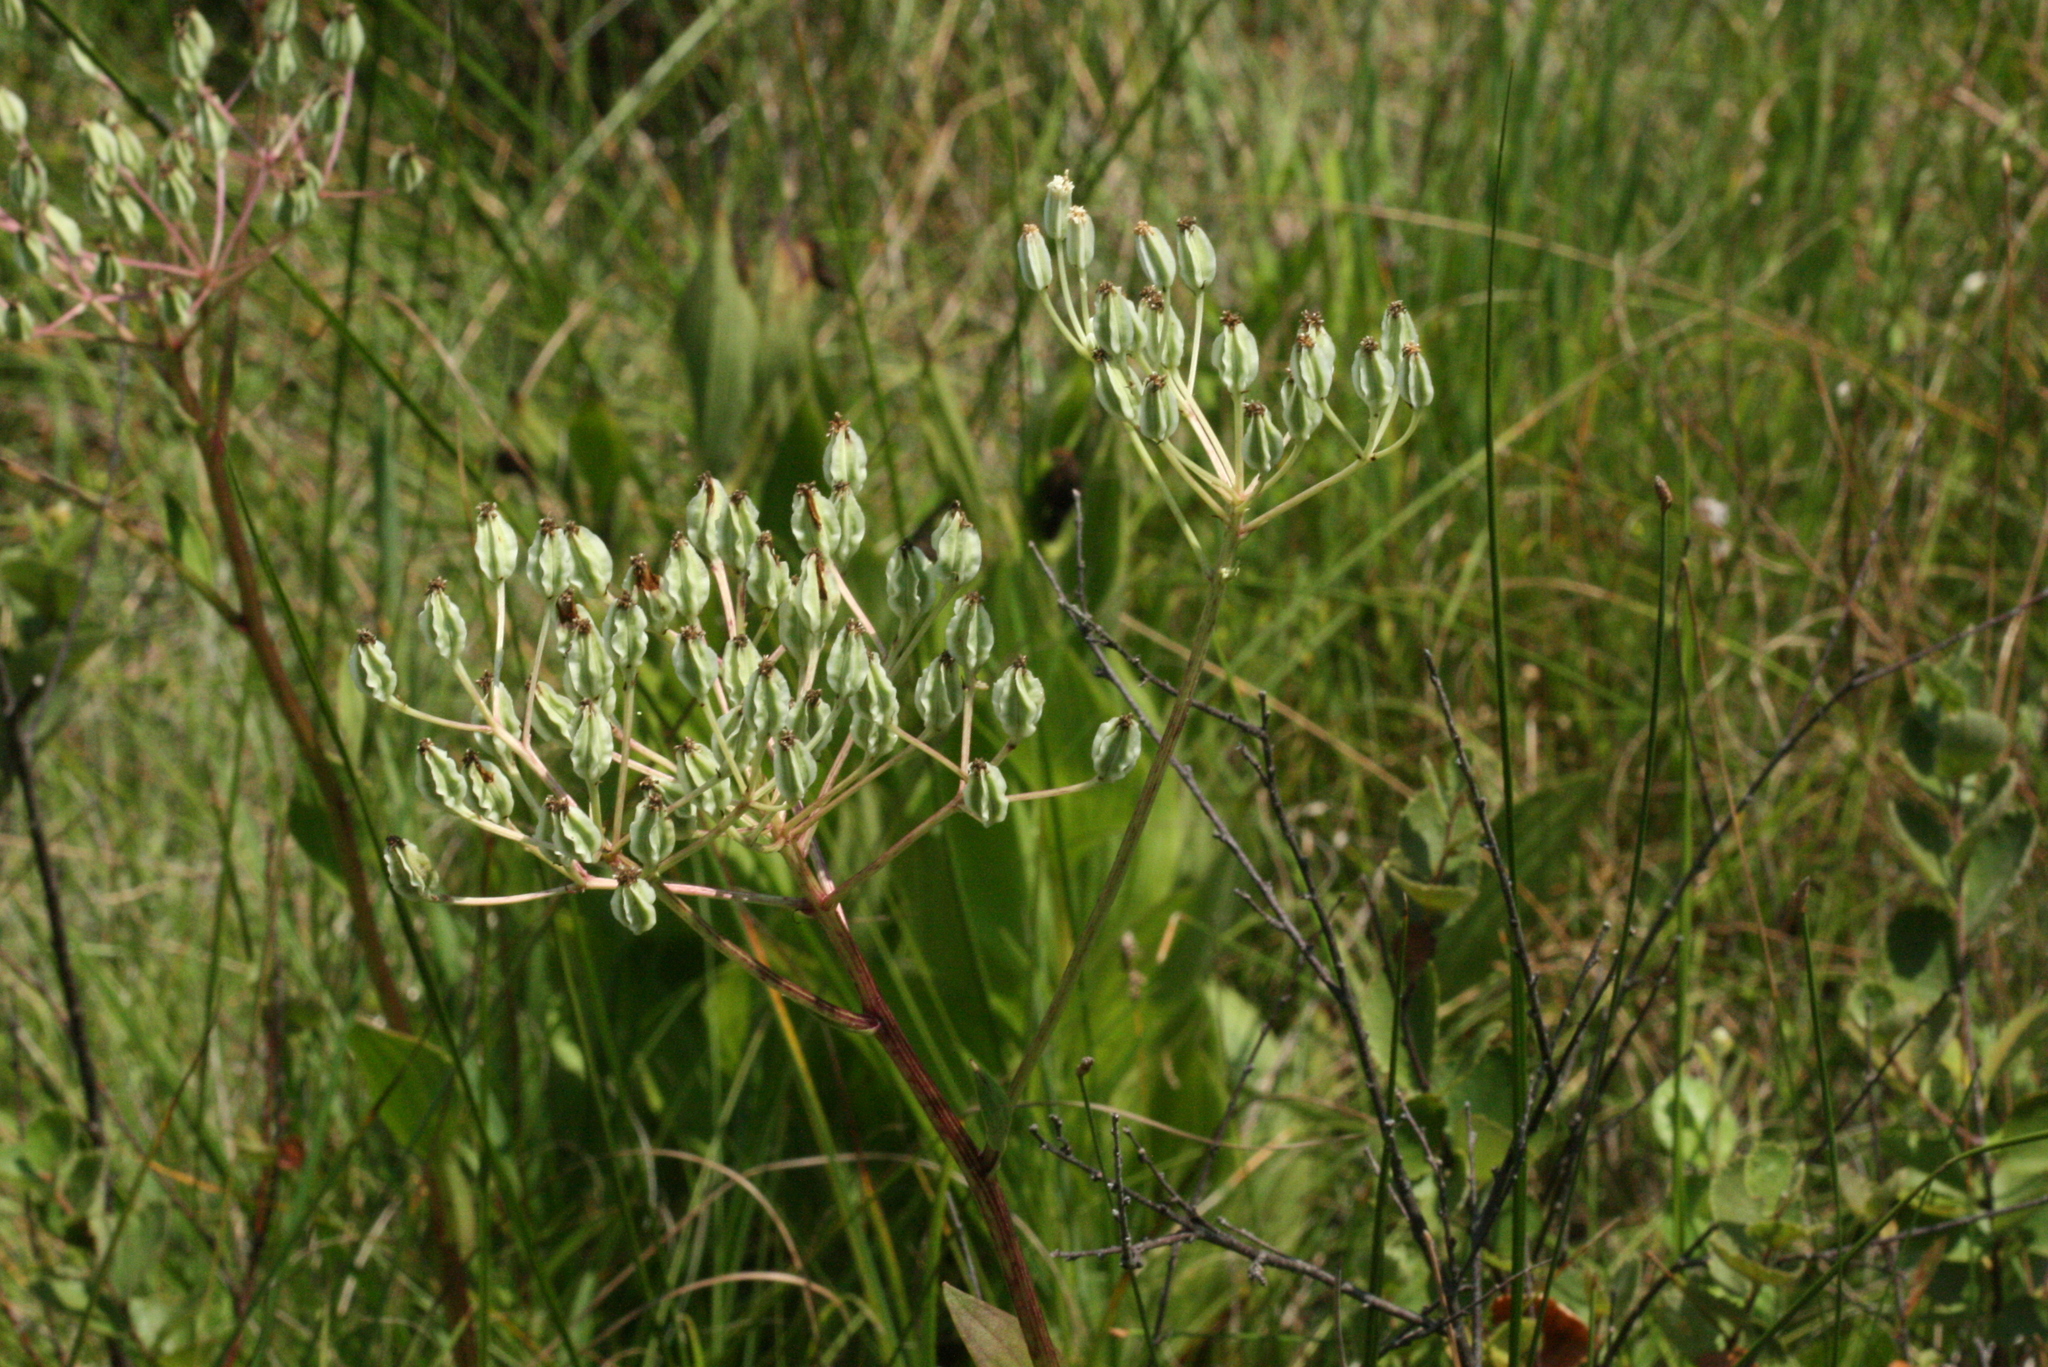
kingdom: Plantae
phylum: Tracheophyta
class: Magnoliopsida
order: Asterales
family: Asteraceae
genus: Arnoglossum
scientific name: Arnoglossum plantagineum
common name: Groove-stemmed indian-plantain
